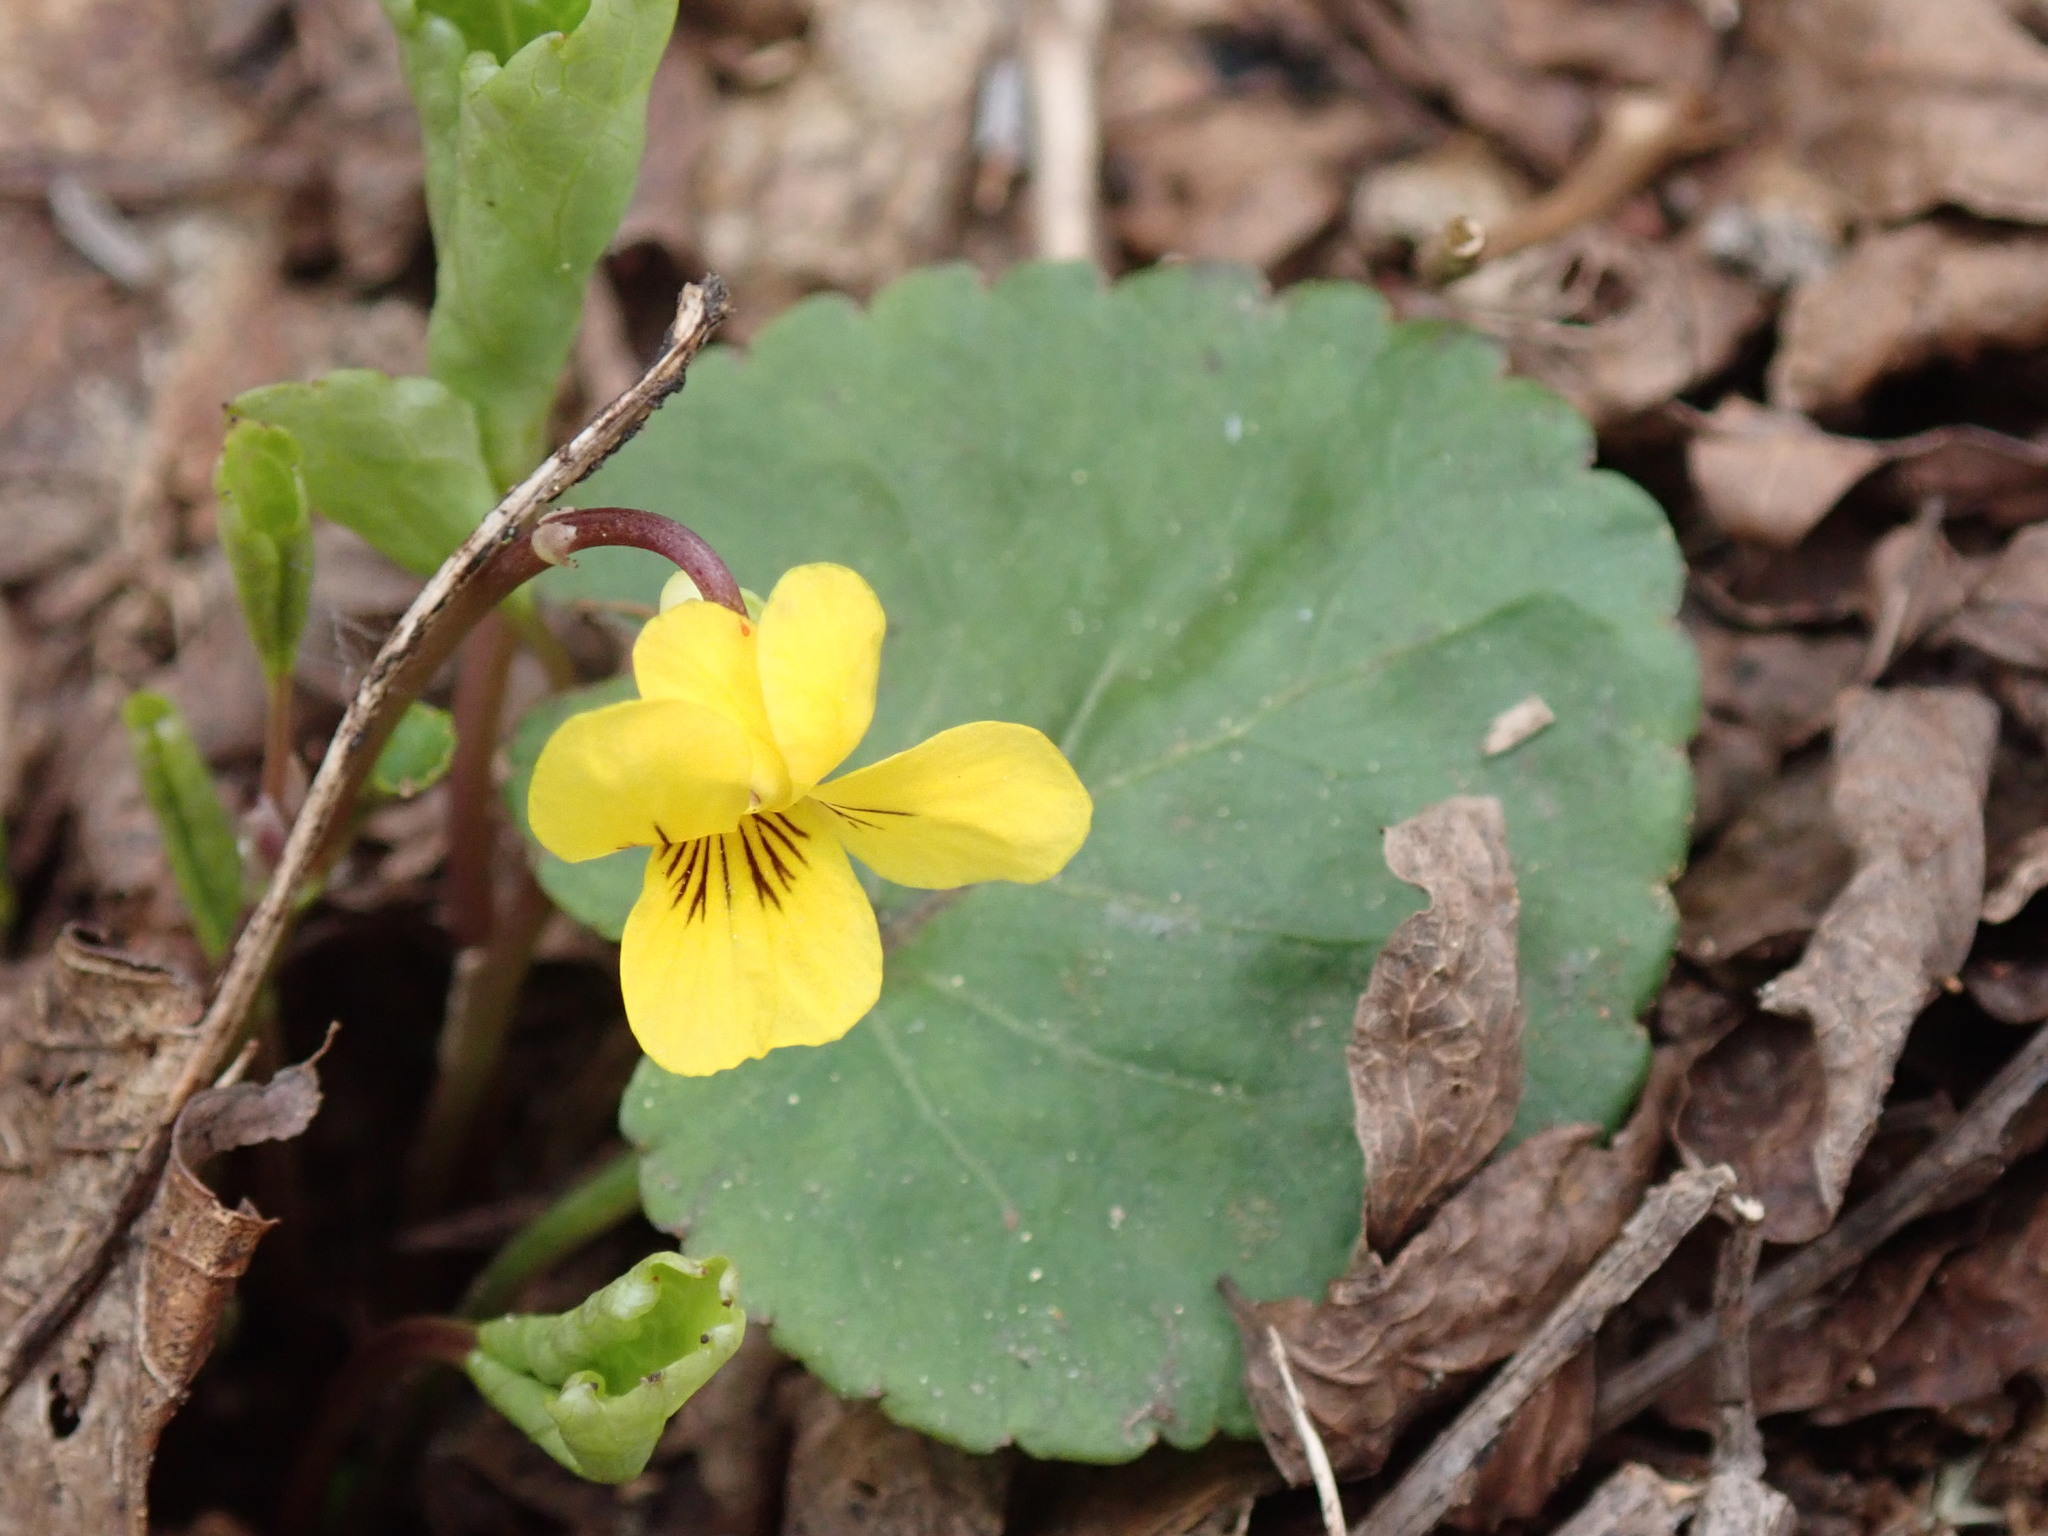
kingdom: Plantae
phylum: Tracheophyta
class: Magnoliopsida
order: Malpighiales
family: Violaceae
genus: Viola
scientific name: Viola orbiculata
